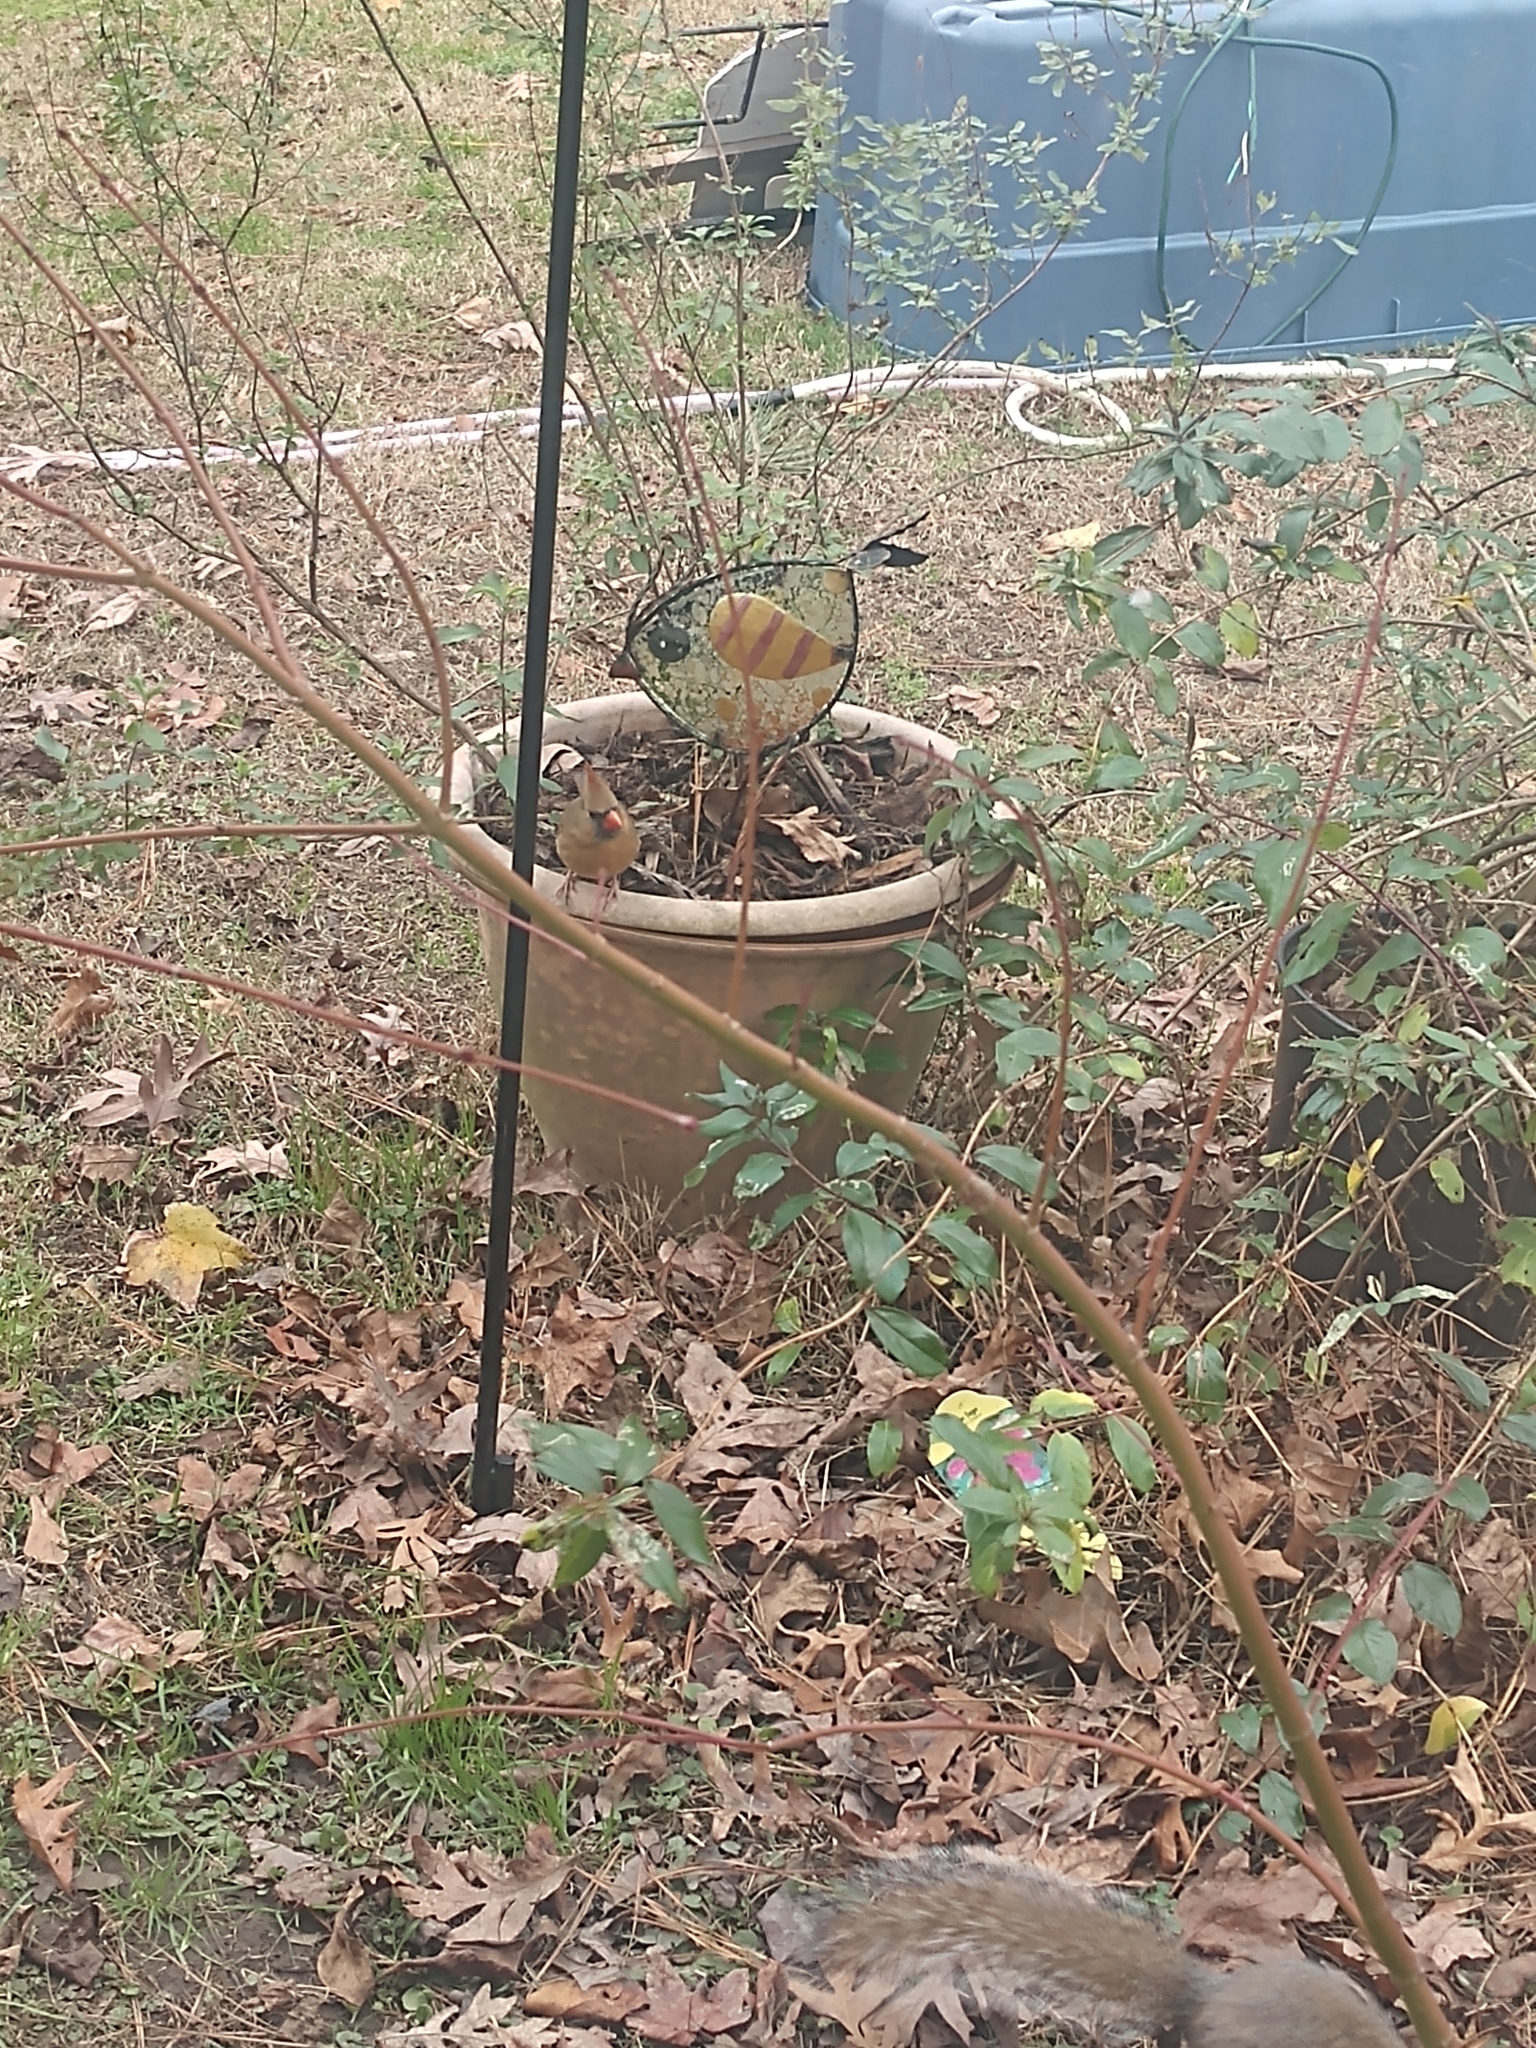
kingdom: Animalia
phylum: Chordata
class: Aves
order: Passeriformes
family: Cardinalidae
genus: Cardinalis
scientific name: Cardinalis cardinalis
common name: Northern cardinal
